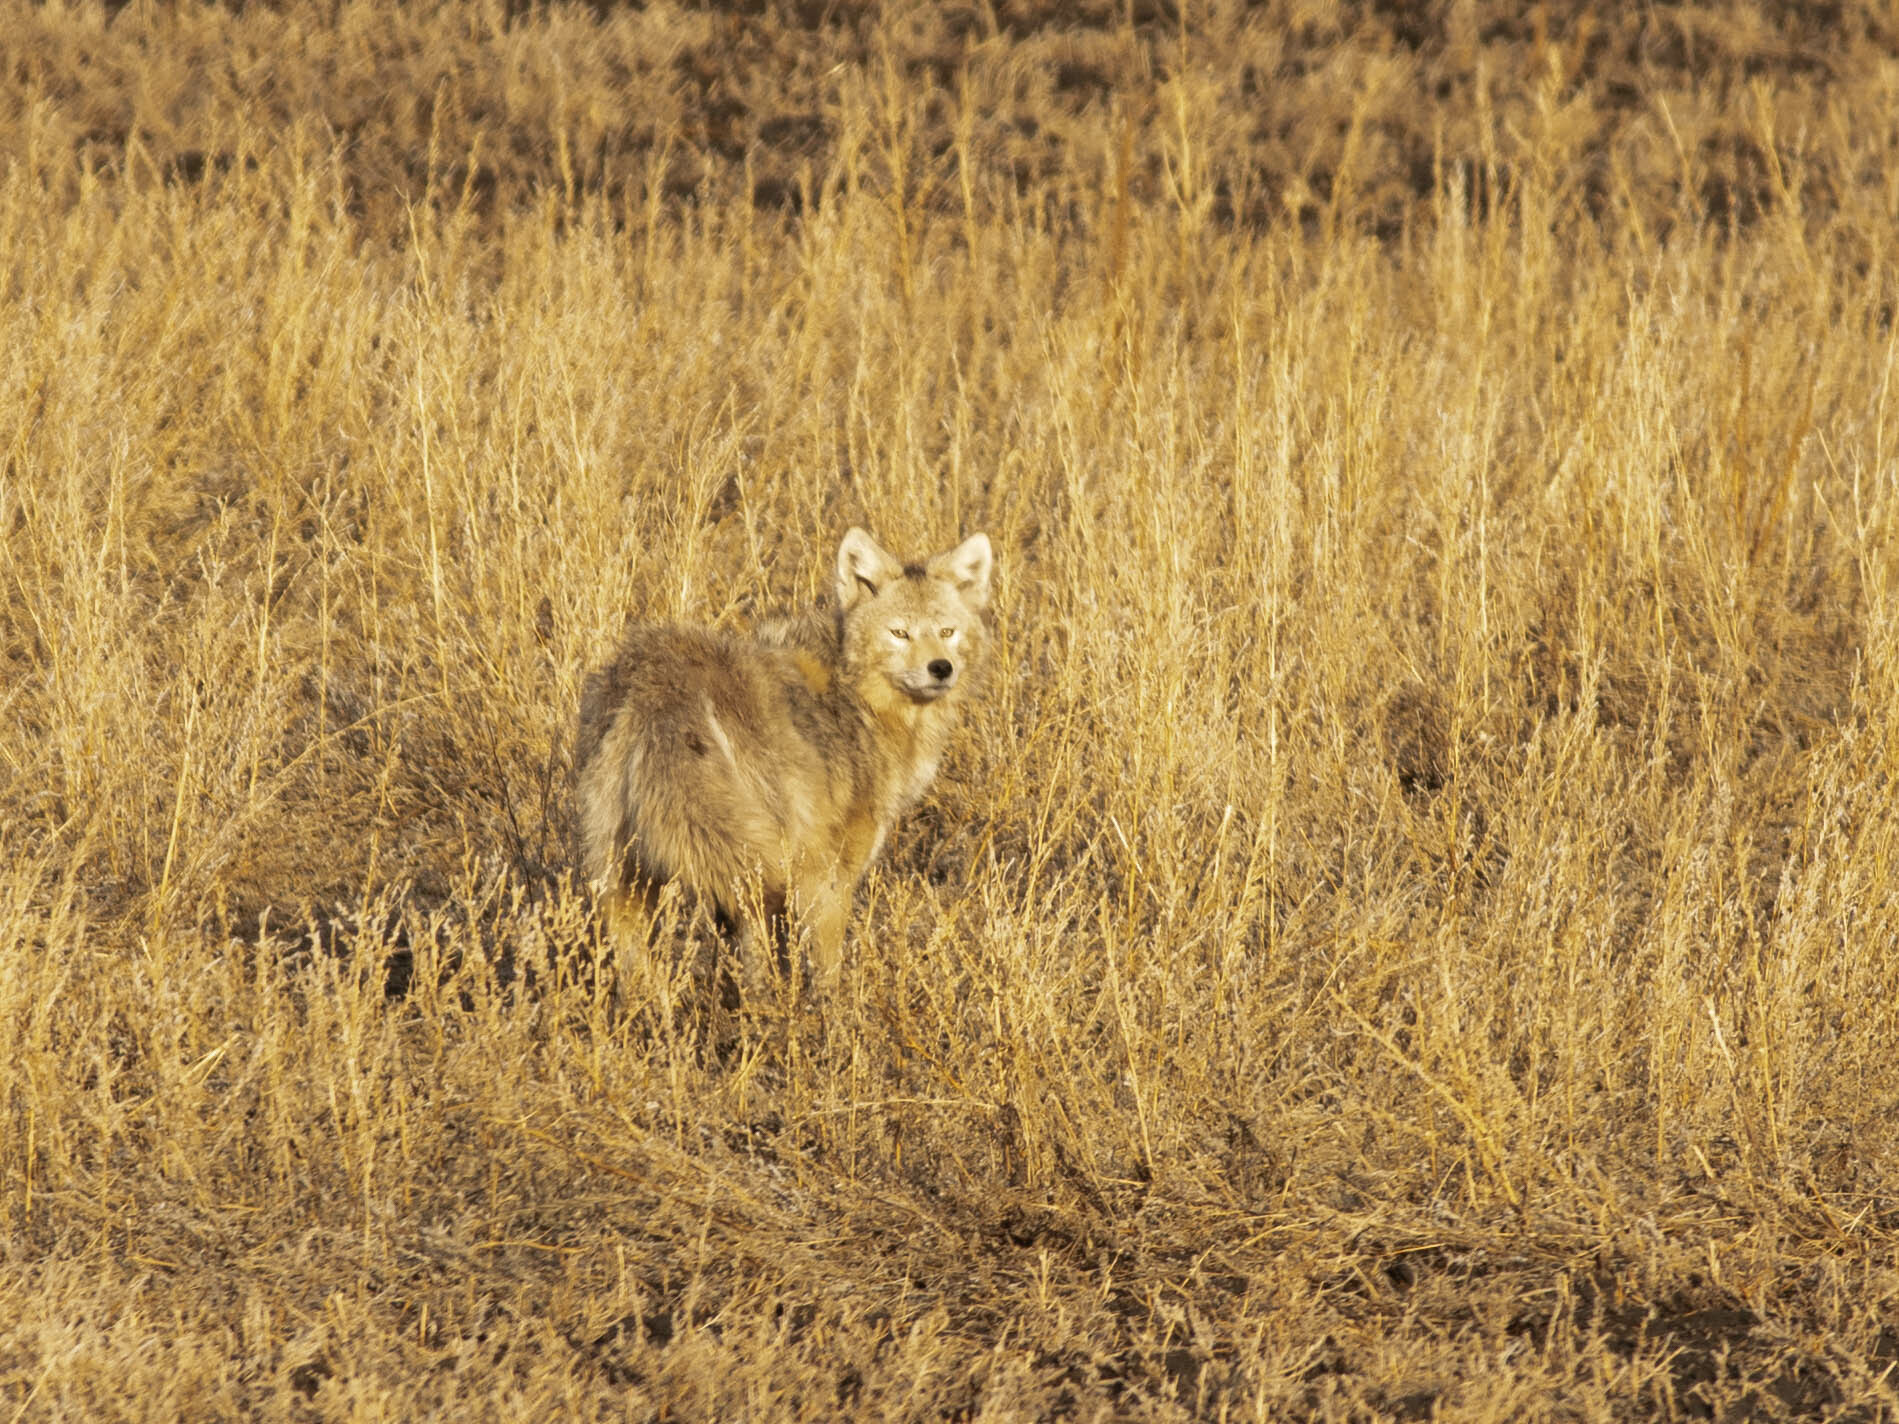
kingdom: Animalia
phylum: Chordata
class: Mammalia
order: Carnivora
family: Canidae
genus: Canis
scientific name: Canis latrans
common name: Coyote
